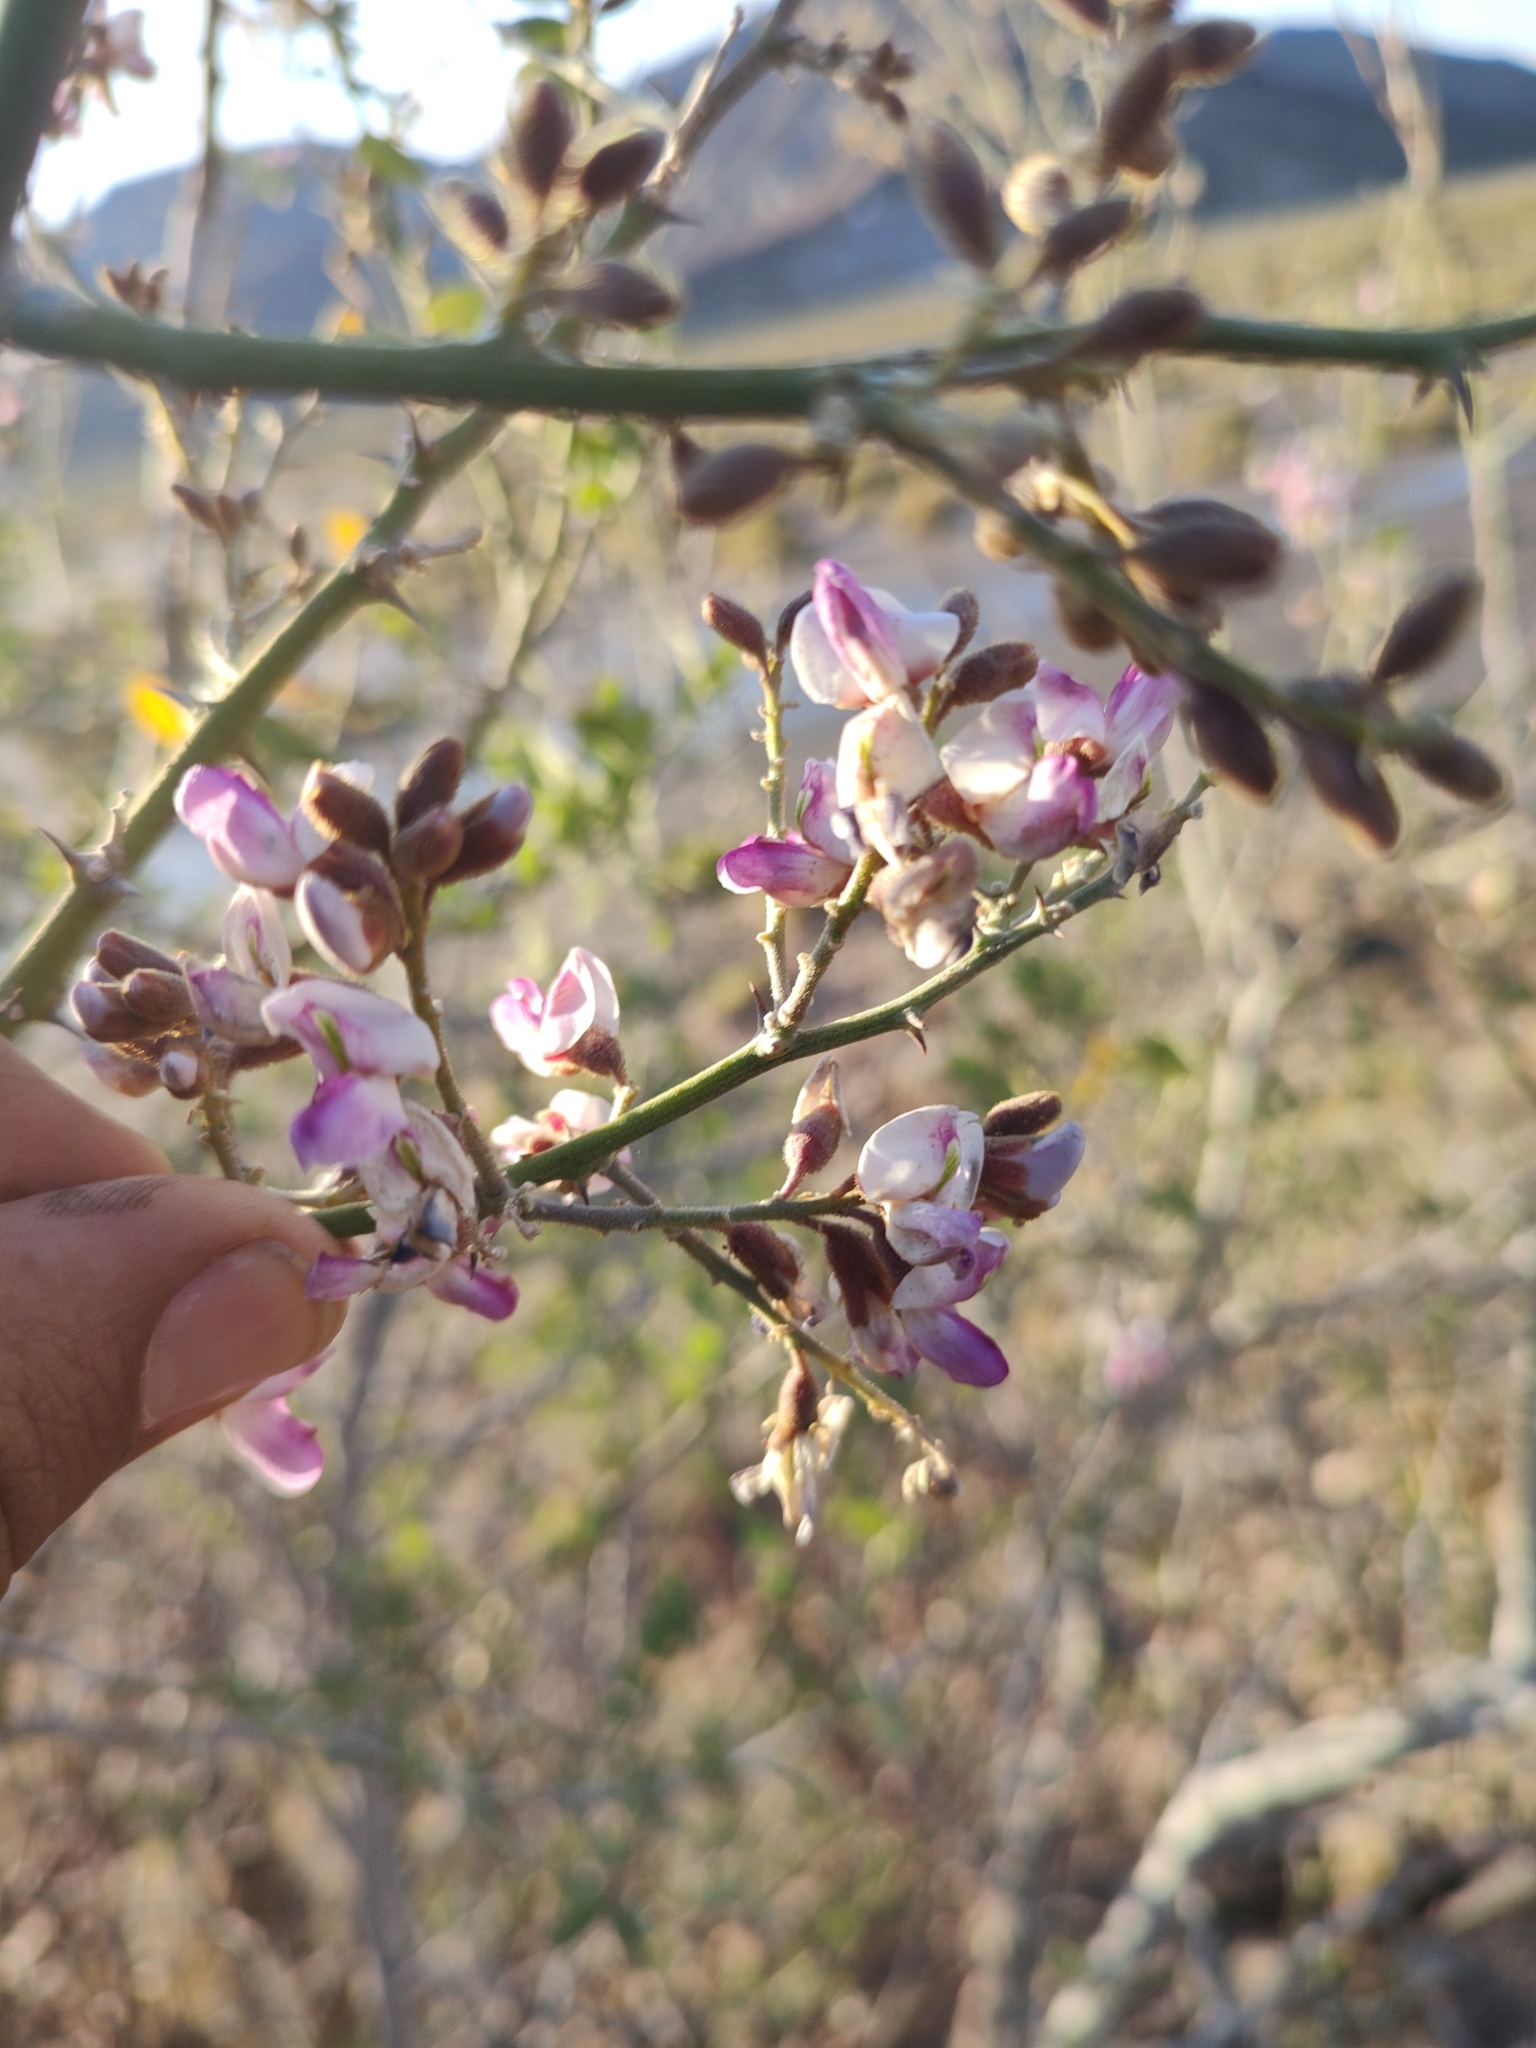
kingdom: Plantae
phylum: Tracheophyta
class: Magnoliopsida
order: Fabales
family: Fabaceae
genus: Olneya
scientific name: Olneya tesota
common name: Desert ironwood
